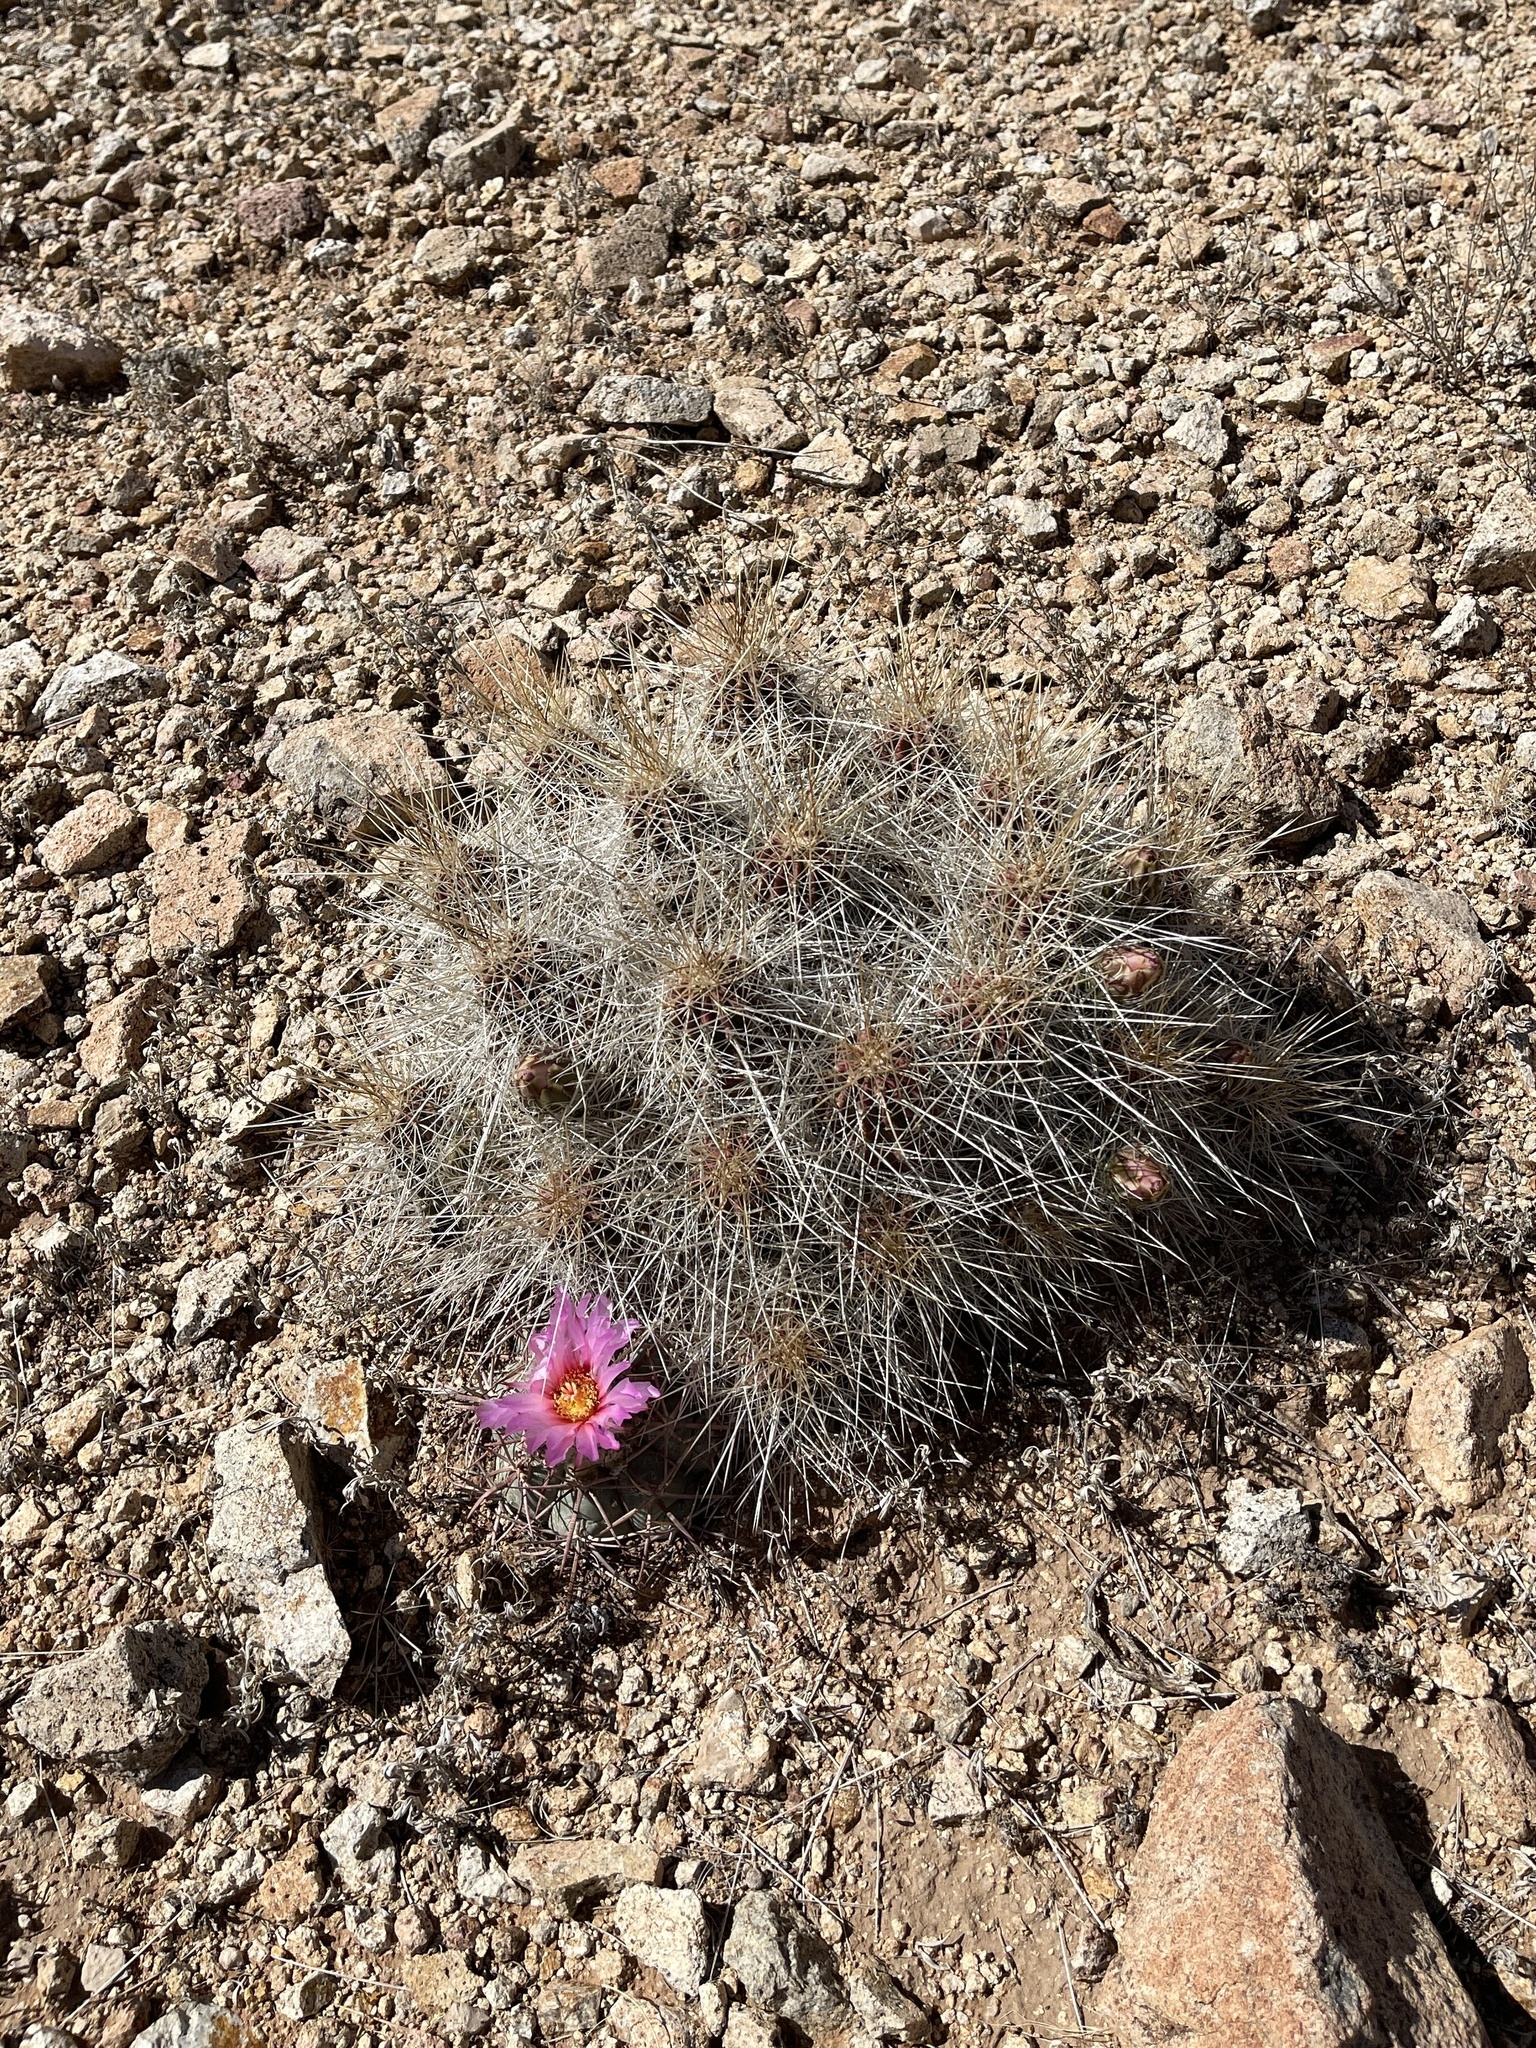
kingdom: Plantae
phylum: Tracheophyta
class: Magnoliopsida
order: Caryophyllales
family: Cactaceae
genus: Echinocactus
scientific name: Echinocactus horizonthalonius
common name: Devilshead
